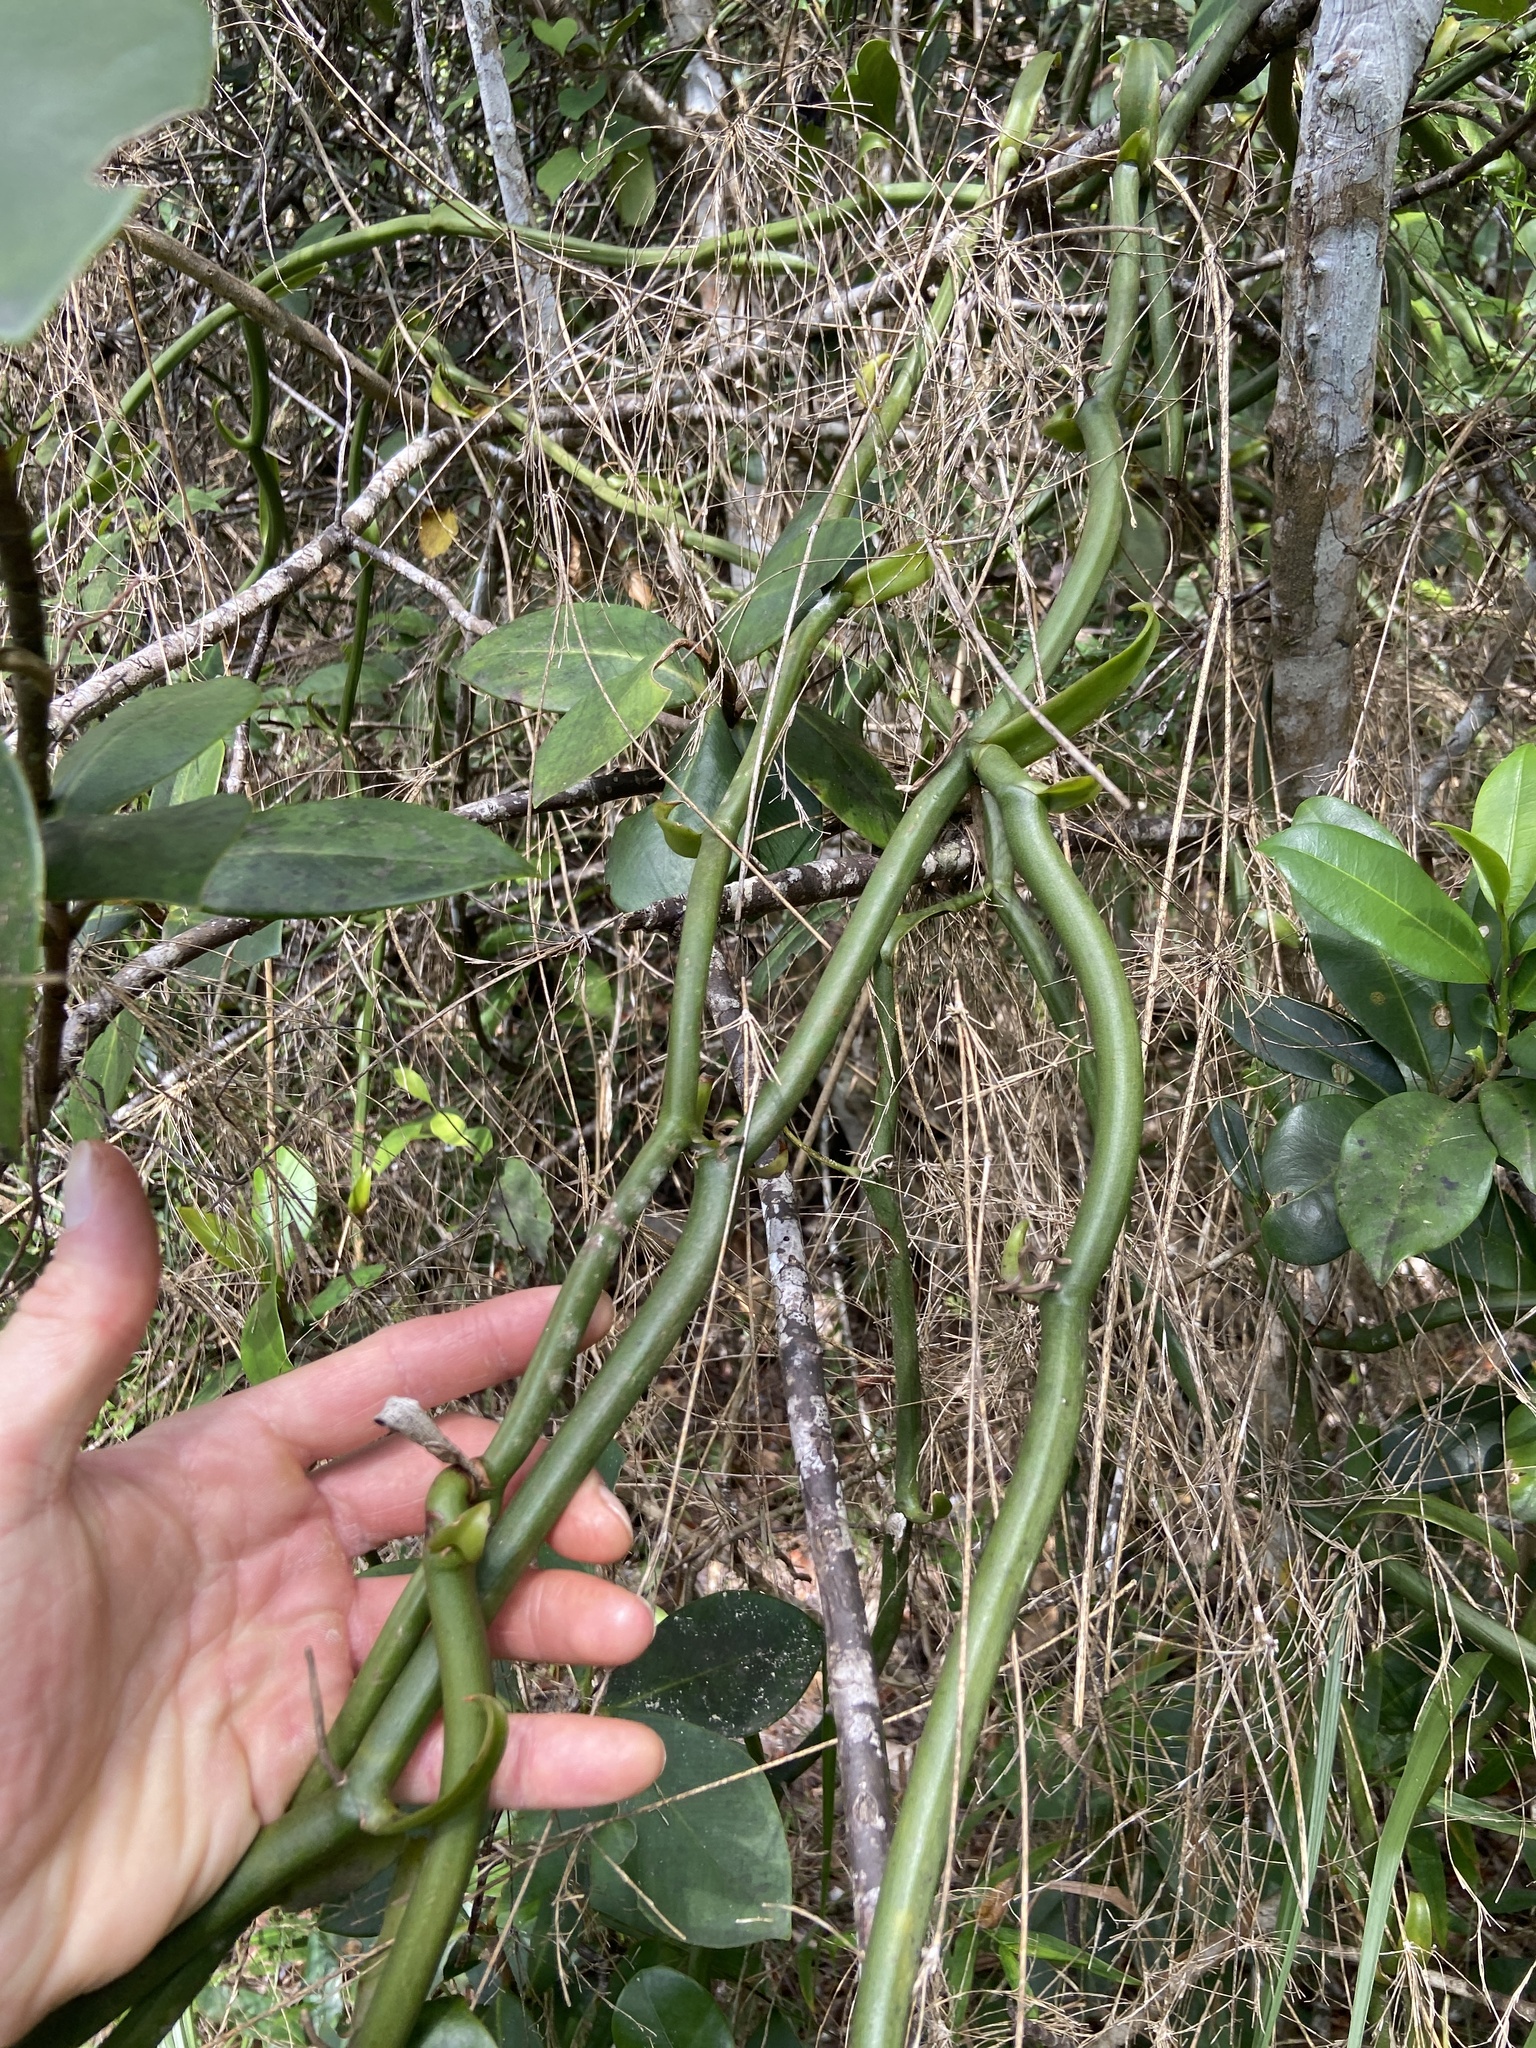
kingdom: Plantae
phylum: Tracheophyta
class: Liliopsida
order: Asparagales
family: Orchidaceae
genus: Vanilla
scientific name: Vanilla poitaei
